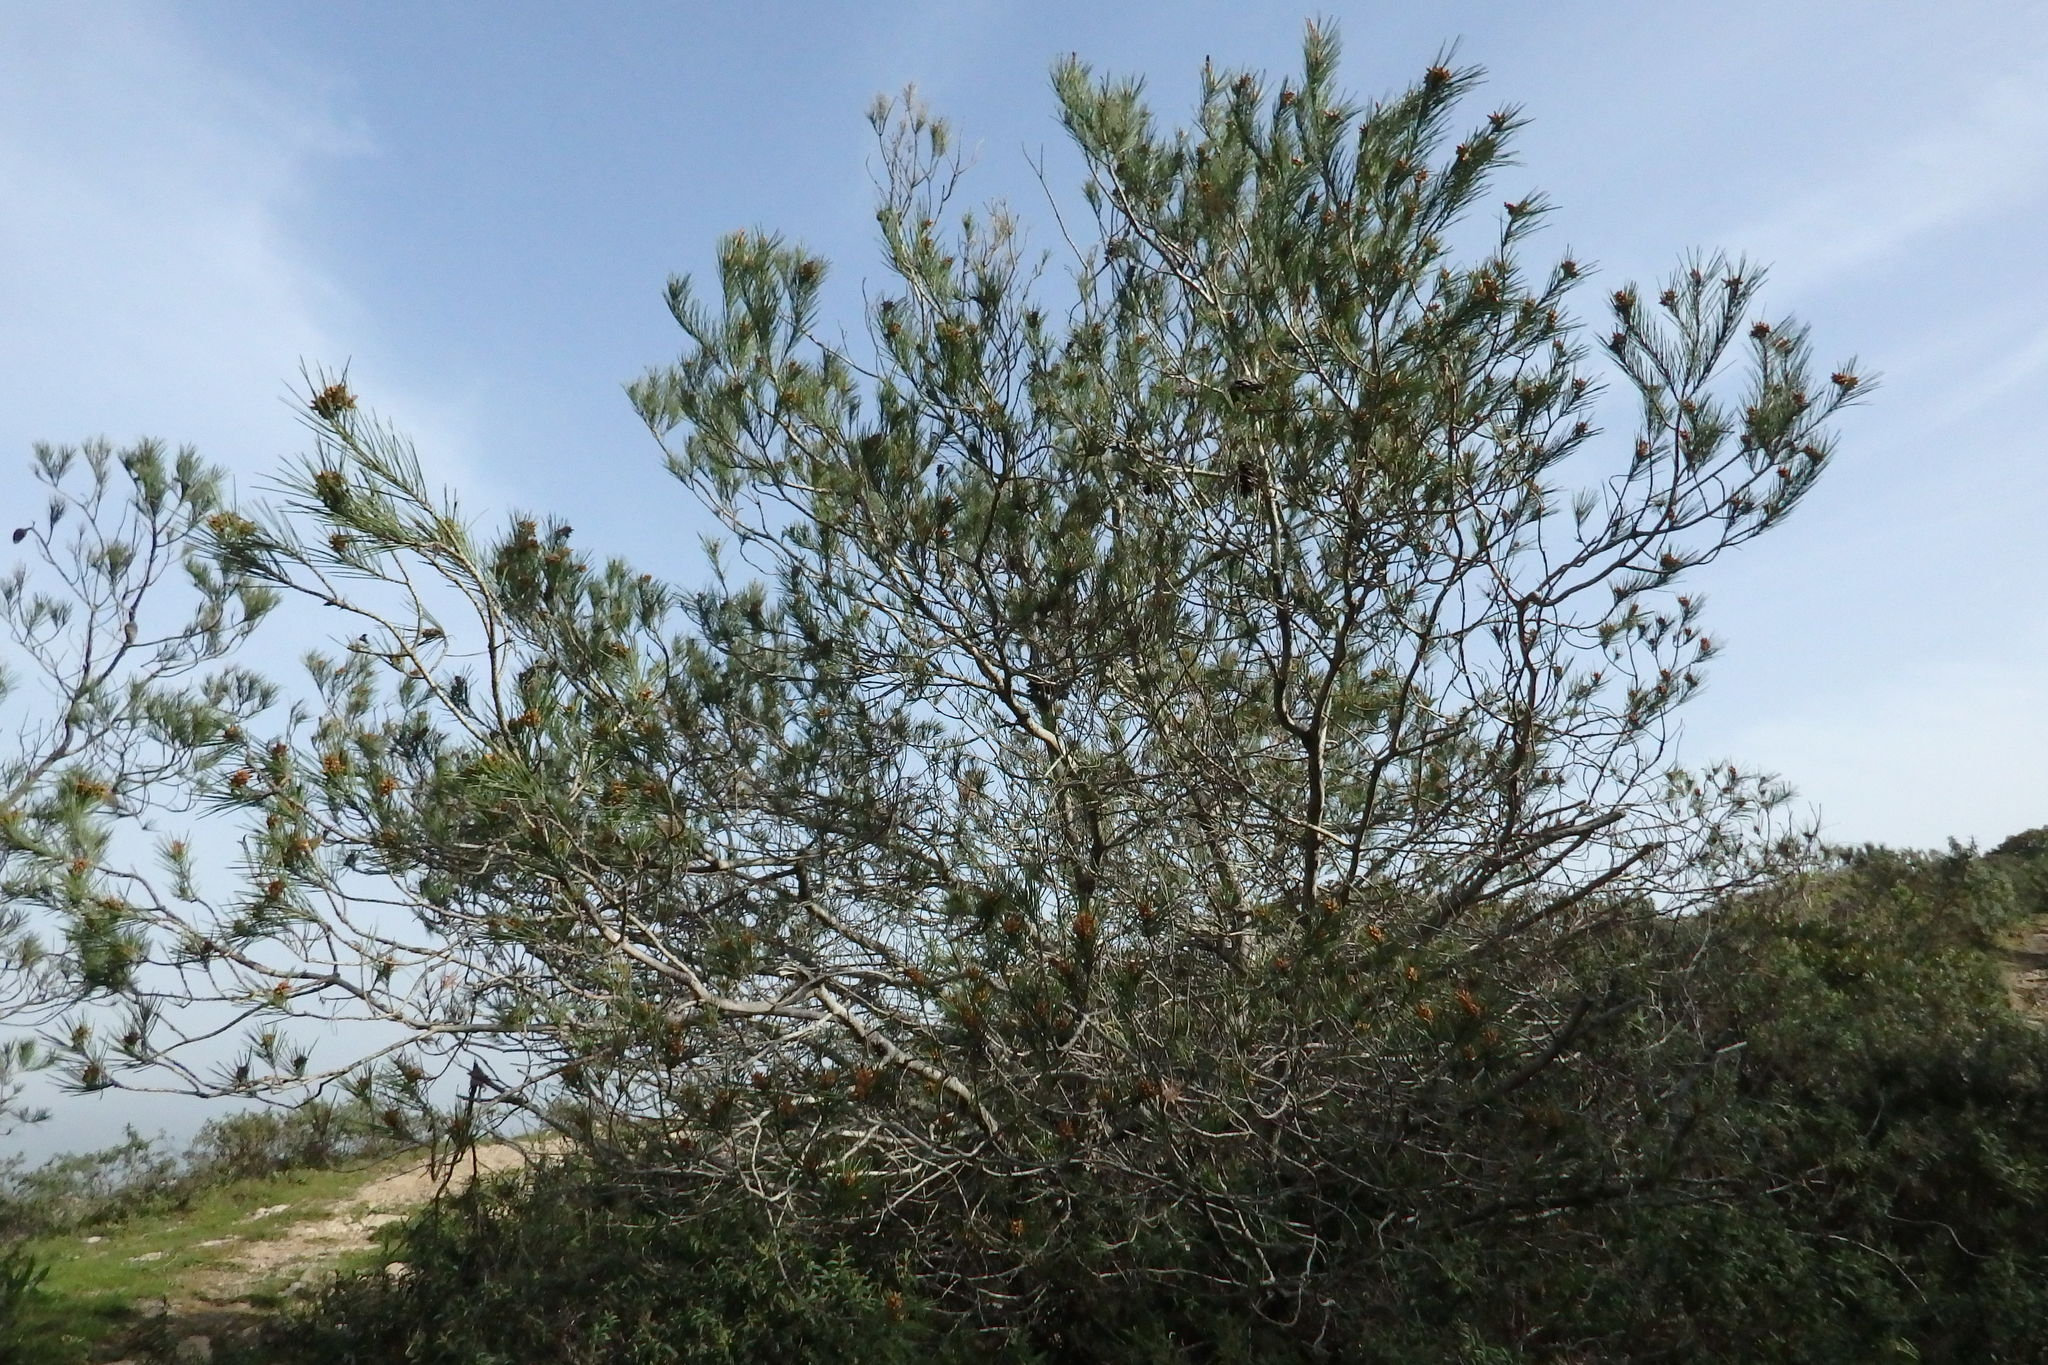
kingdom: Plantae
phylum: Tracheophyta
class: Pinopsida
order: Pinales
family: Pinaceae
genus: Pinus
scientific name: Pinus halepensis
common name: Aleppo pine
